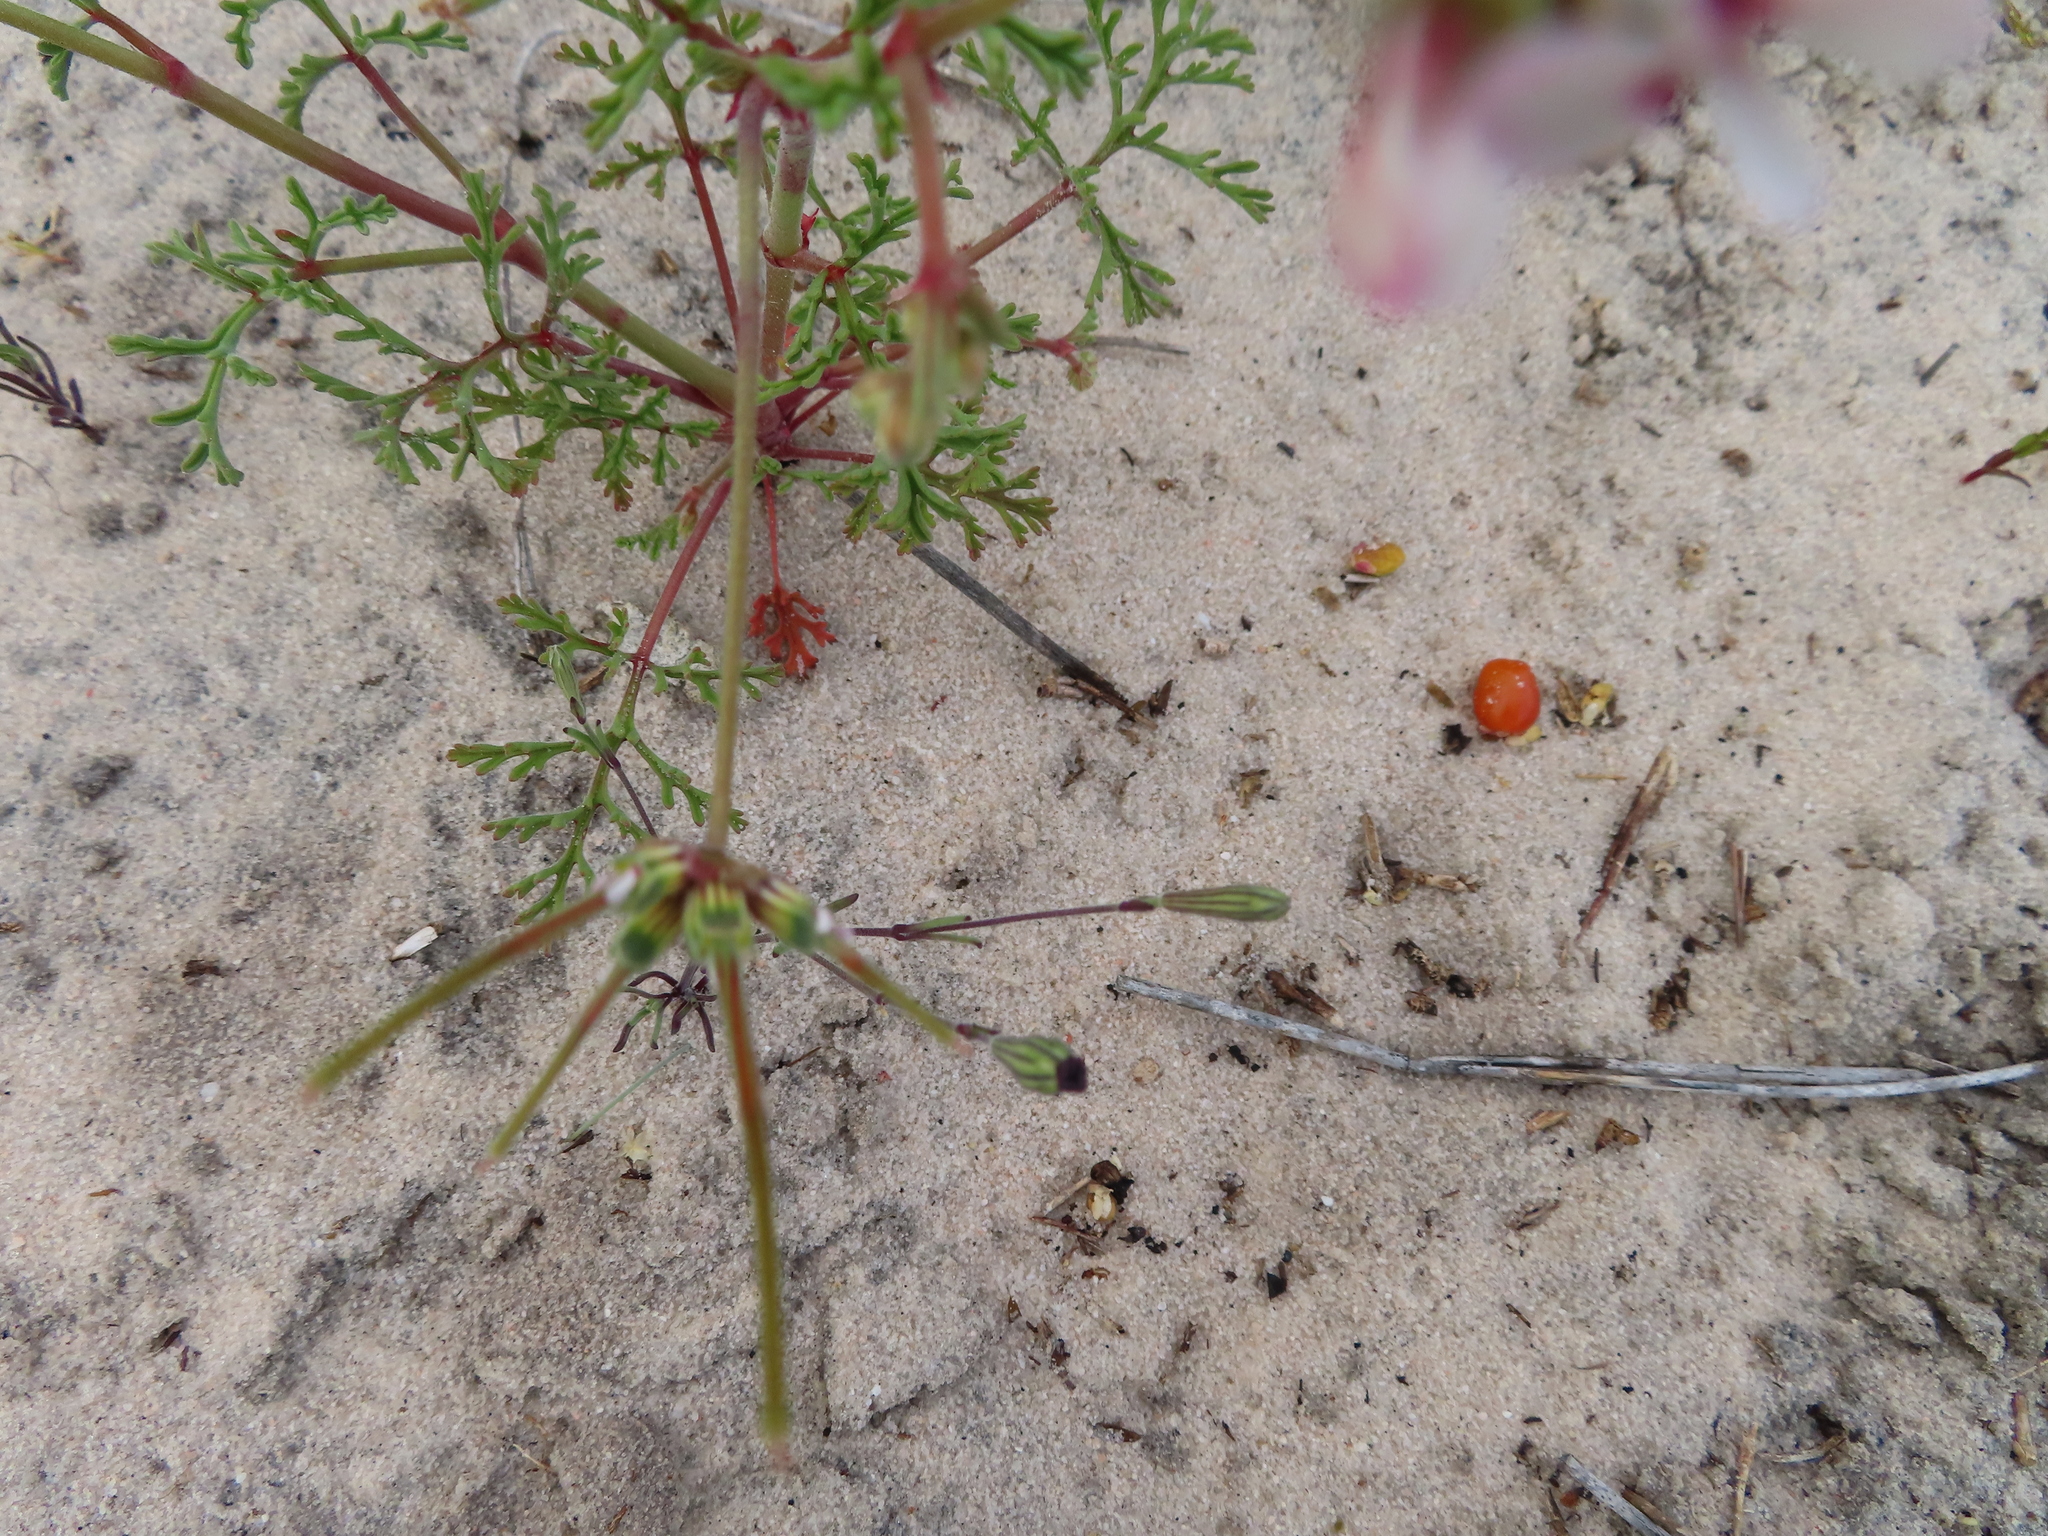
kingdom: Plantae
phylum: Tracheophyta
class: Magnoliopsida
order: Geraniales
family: Geraniaceae
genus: Pelargonium
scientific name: Pelargonium senecioides
